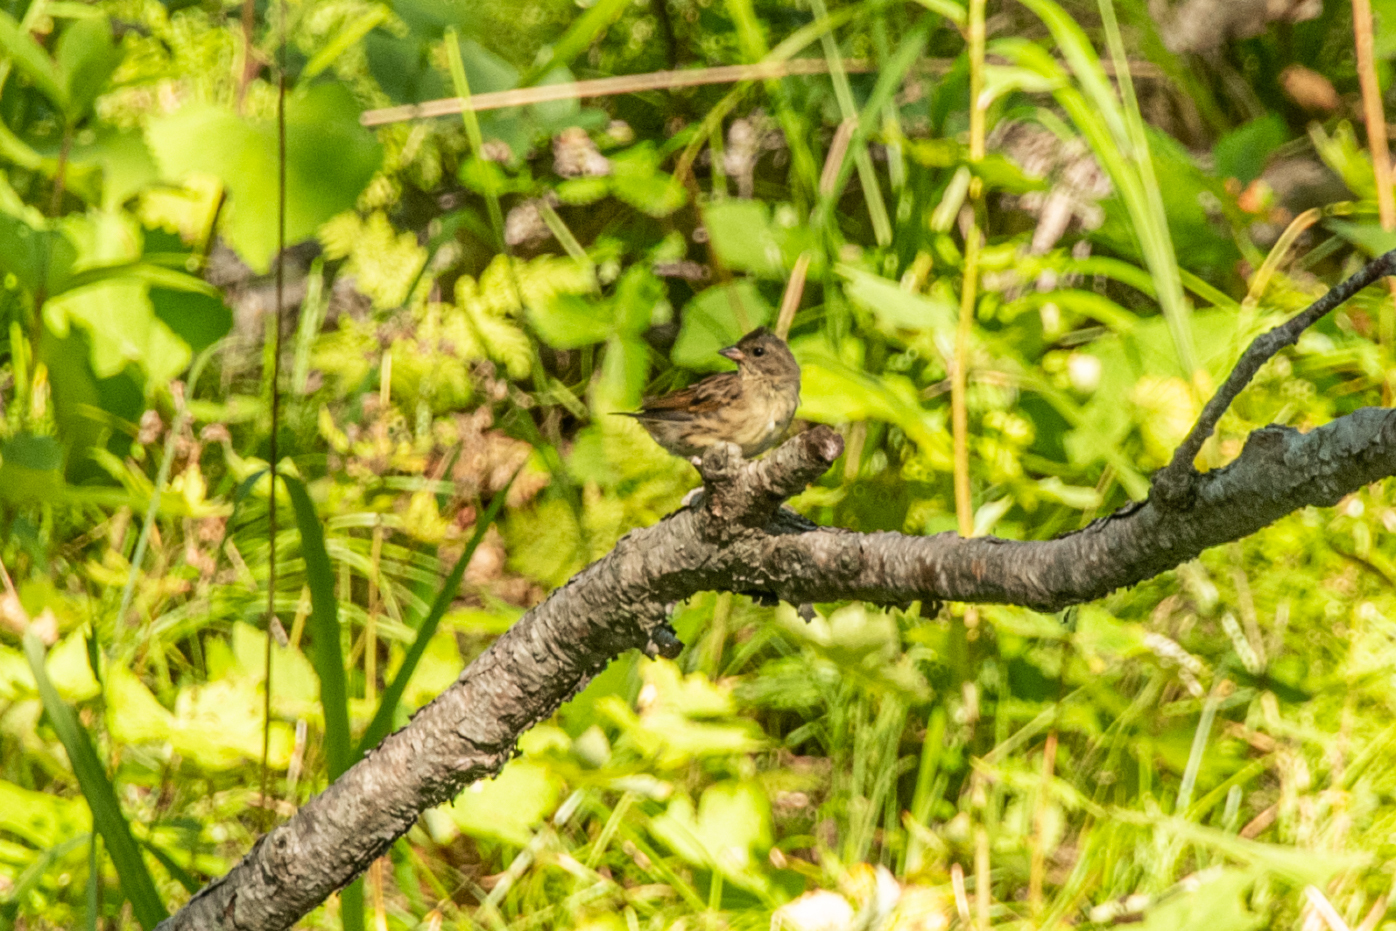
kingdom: Animalia
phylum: Chordata
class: Aves
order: Passeriformes
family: Emberizidae
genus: Emberiza
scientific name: Emberiza spodocephala
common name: Black-faced bunting
